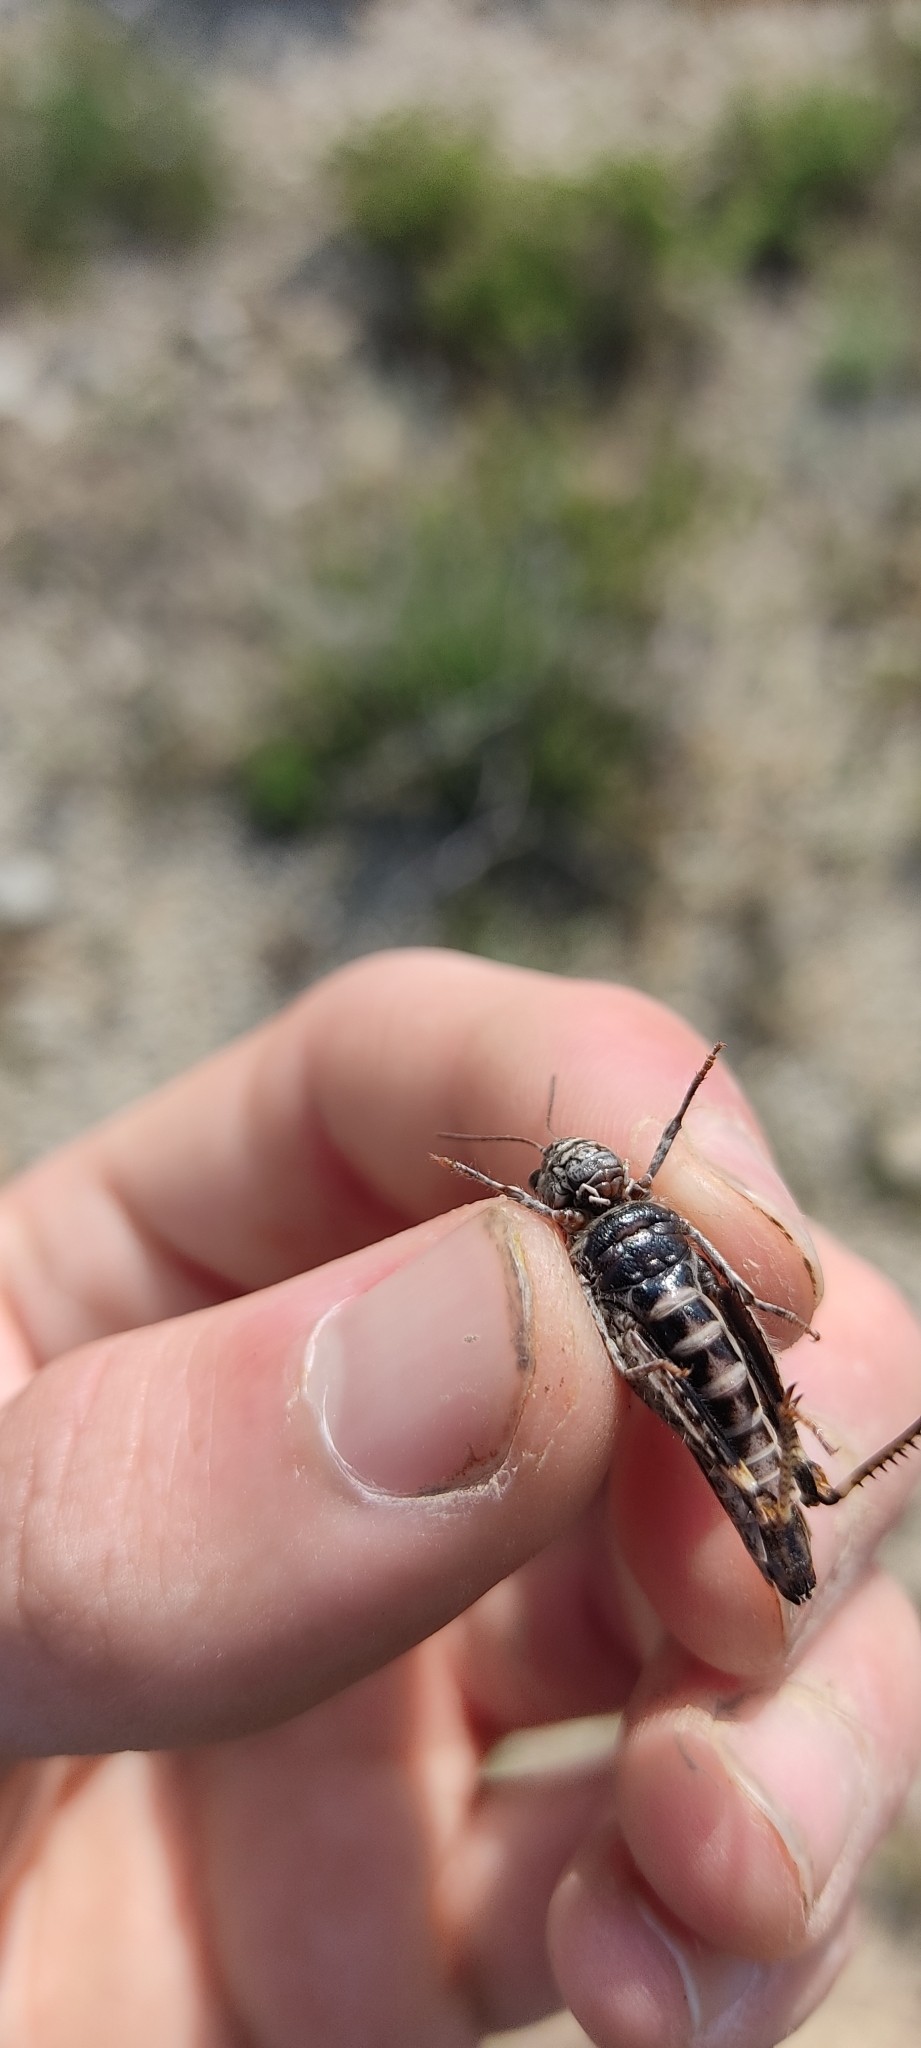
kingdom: Animalia
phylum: Arthropoda
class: Insecta
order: Orthoptera
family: Acrididae
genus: Acrotylus
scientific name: Acrotylus insubricus
